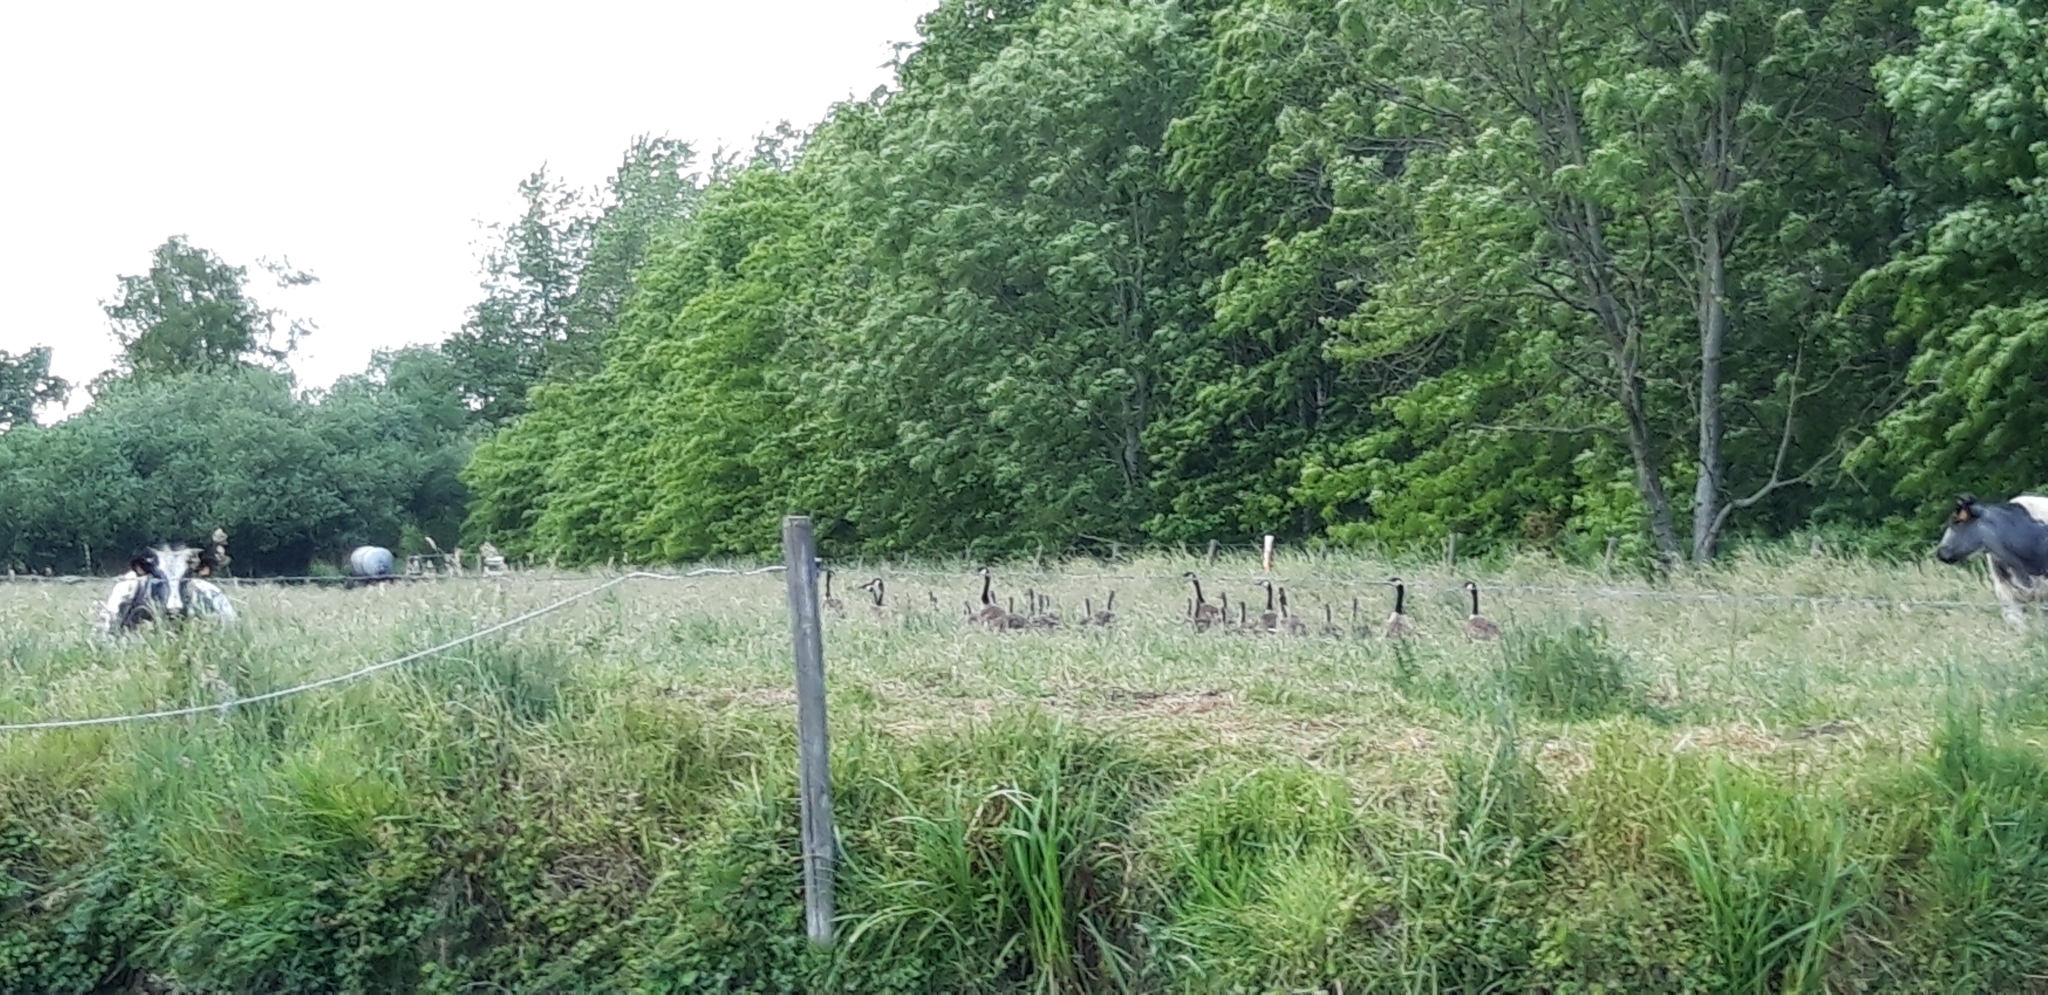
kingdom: Animalia
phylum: Chordata
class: Aves
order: Anseriformes
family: Anatidae
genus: Branta
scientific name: Branta canadensis
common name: Canada goose
